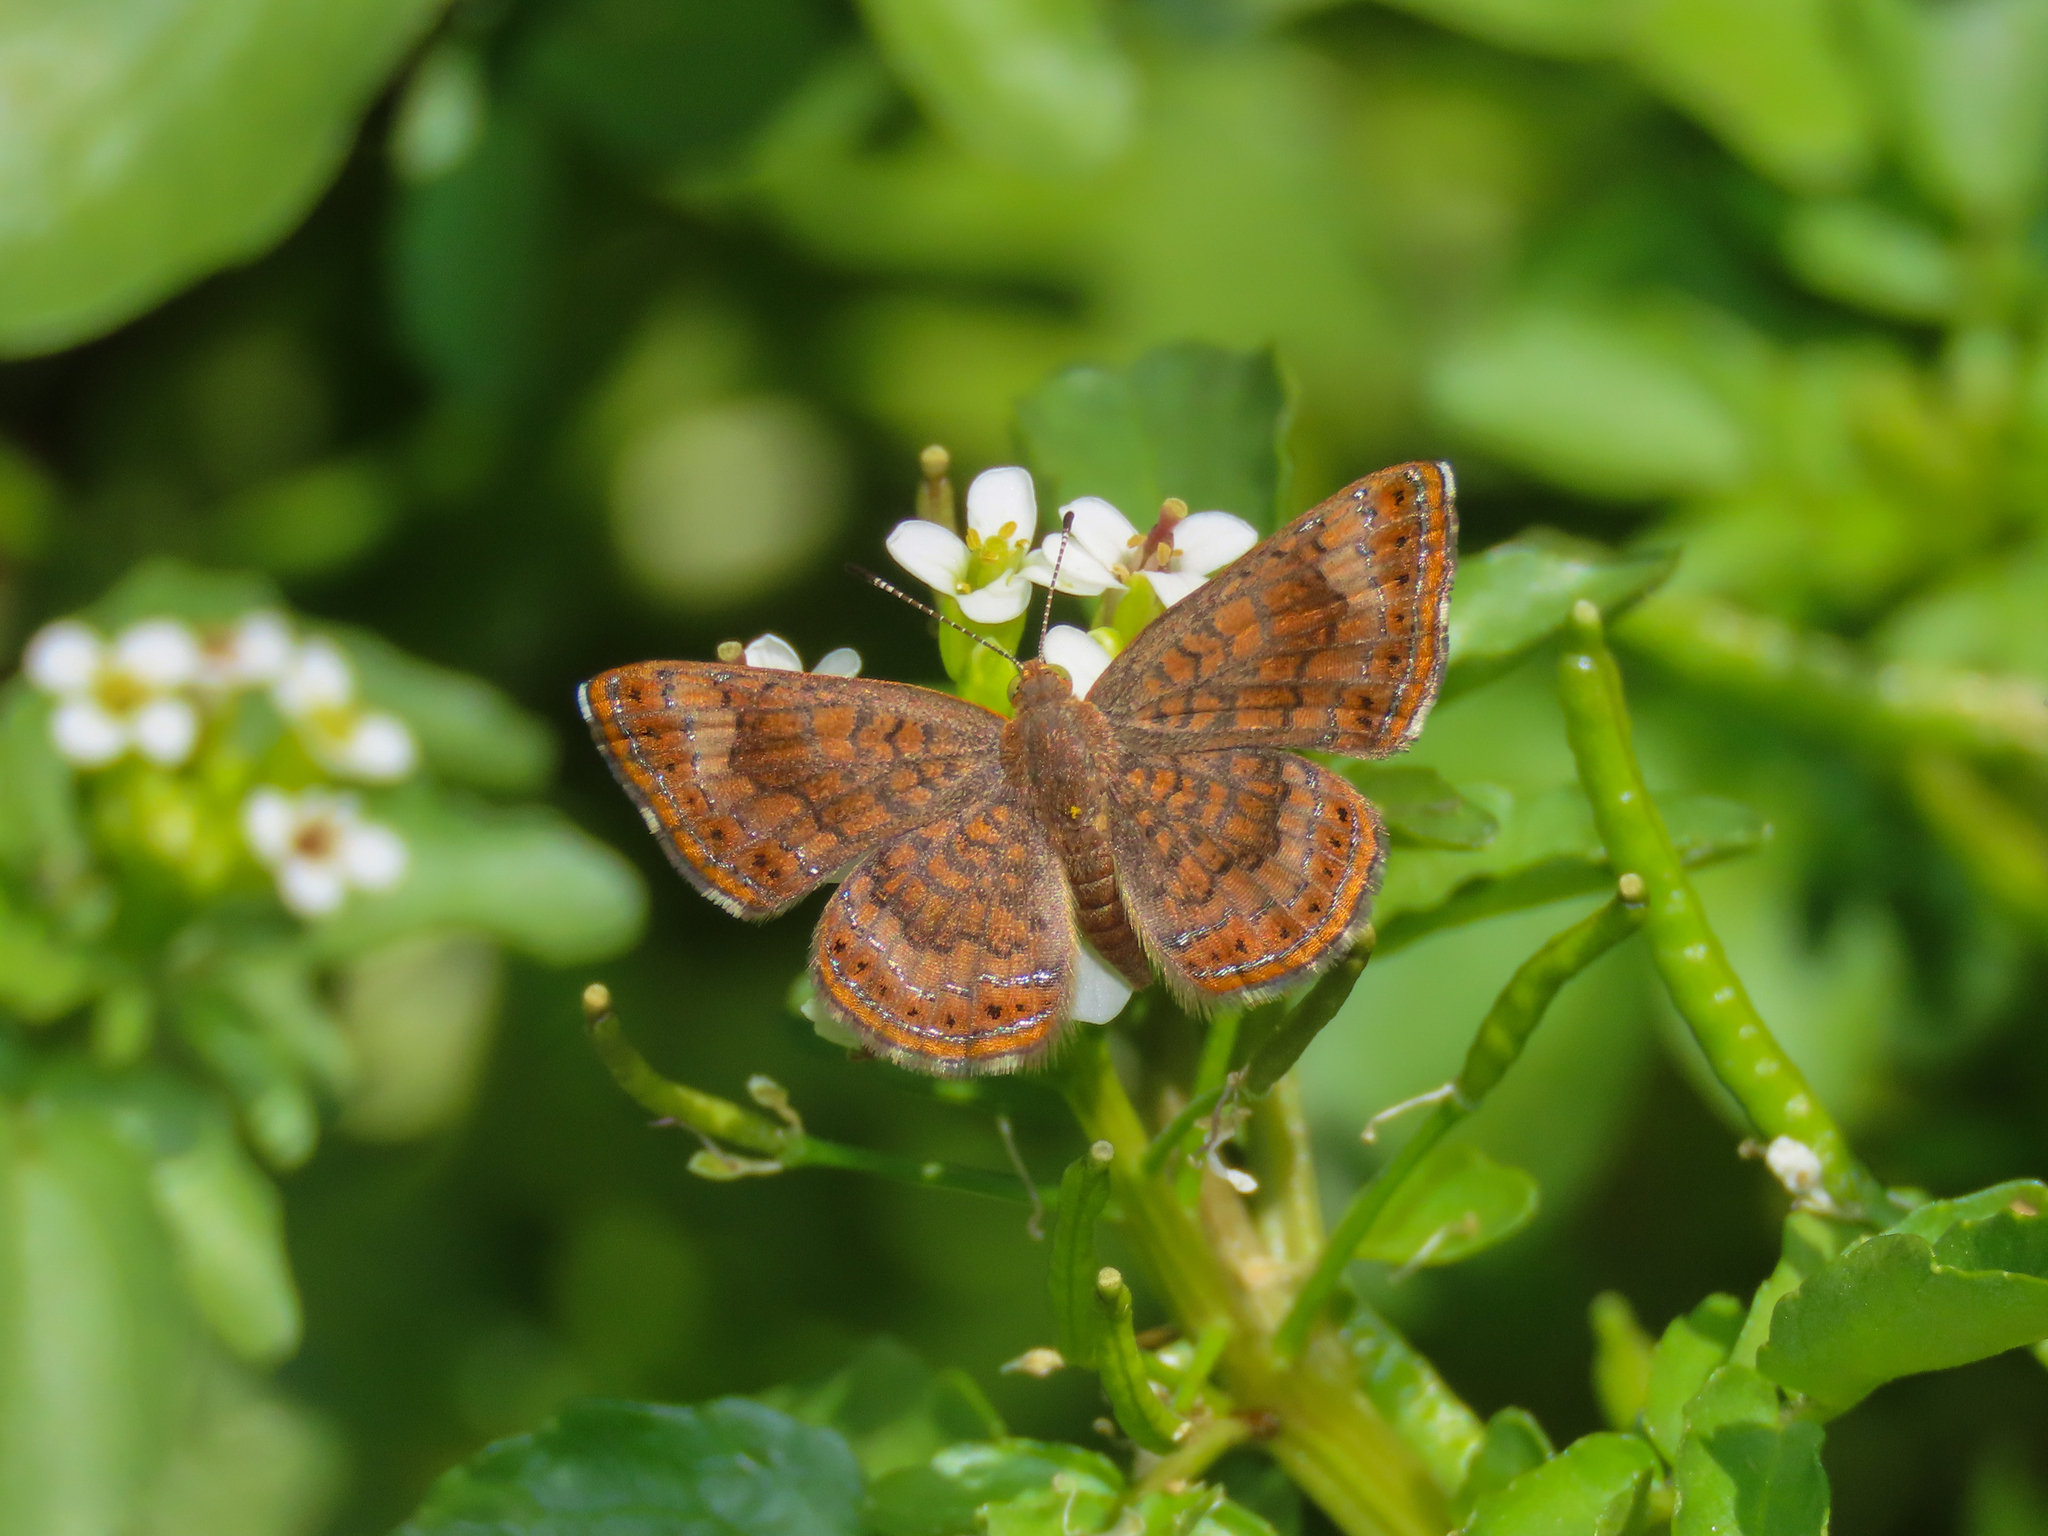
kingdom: Animalia
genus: Calephelis
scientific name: Calephelis nemesis
